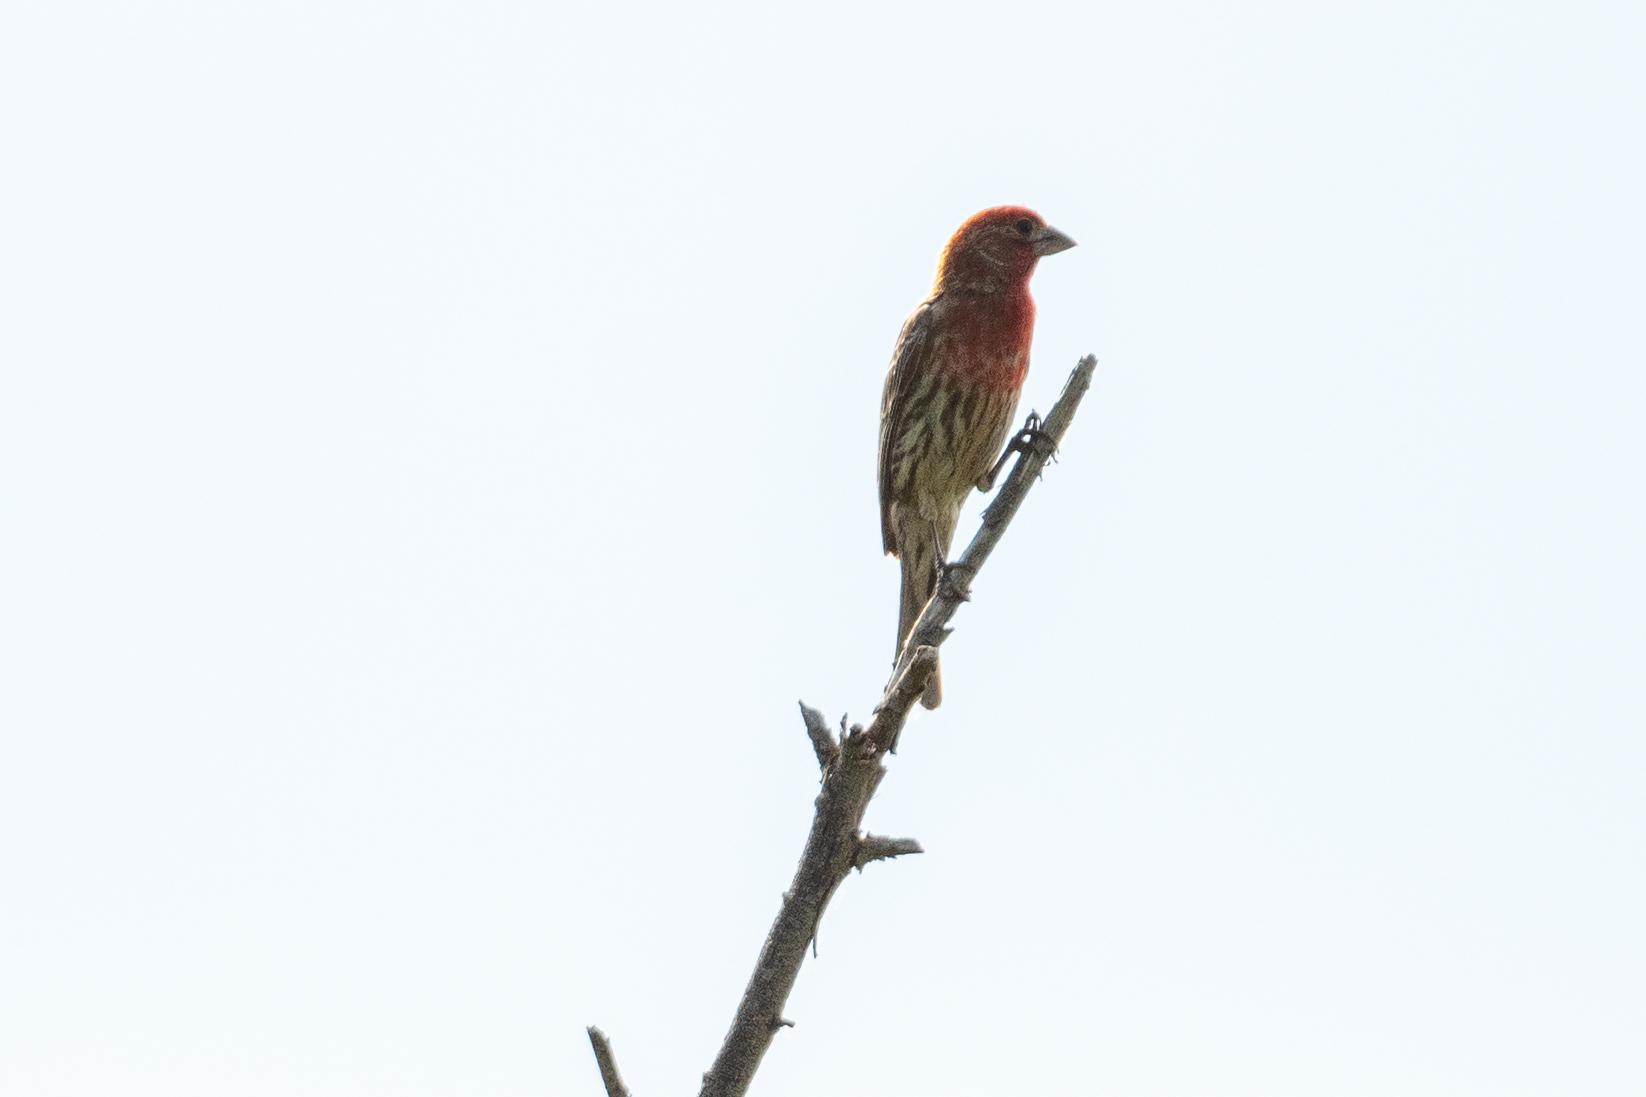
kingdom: Animalia
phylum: Chordata
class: Aves
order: Passeriformes
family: Fringillidae
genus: Haemorhous
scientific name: Haemorhous mexicanus
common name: House finch
